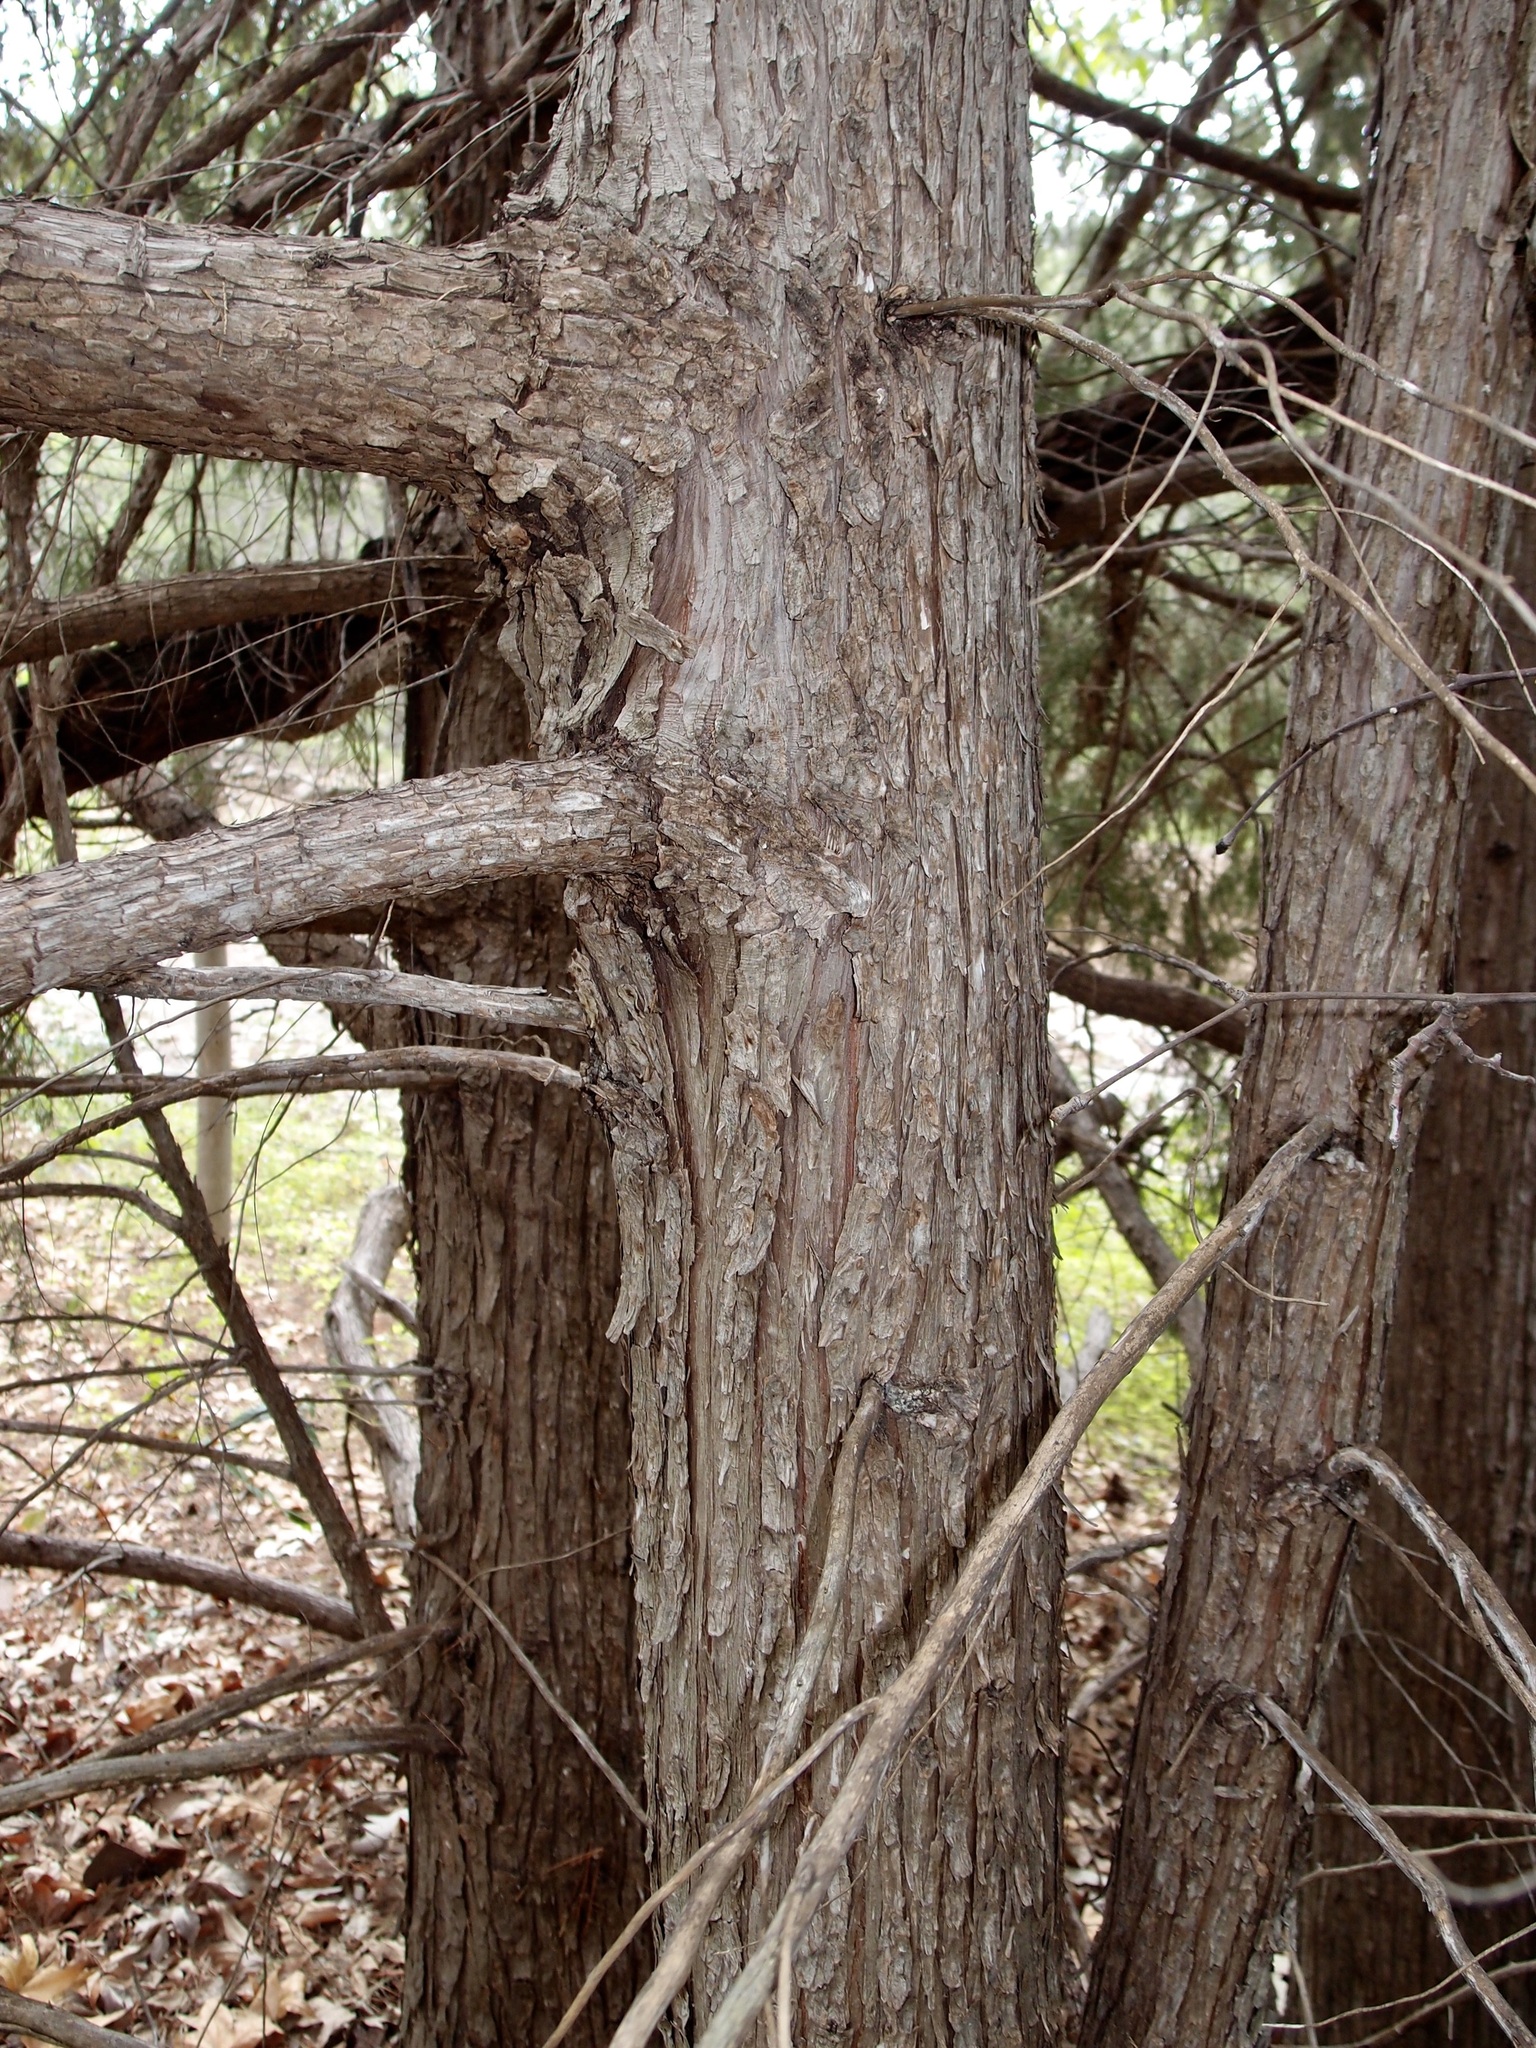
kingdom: Plantae
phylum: Tracheophyta
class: Pinopsida
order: Pinales
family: Cupressaceae
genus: Juniperus
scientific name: Juniperus scopulorum
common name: Rocky mountain juniper
